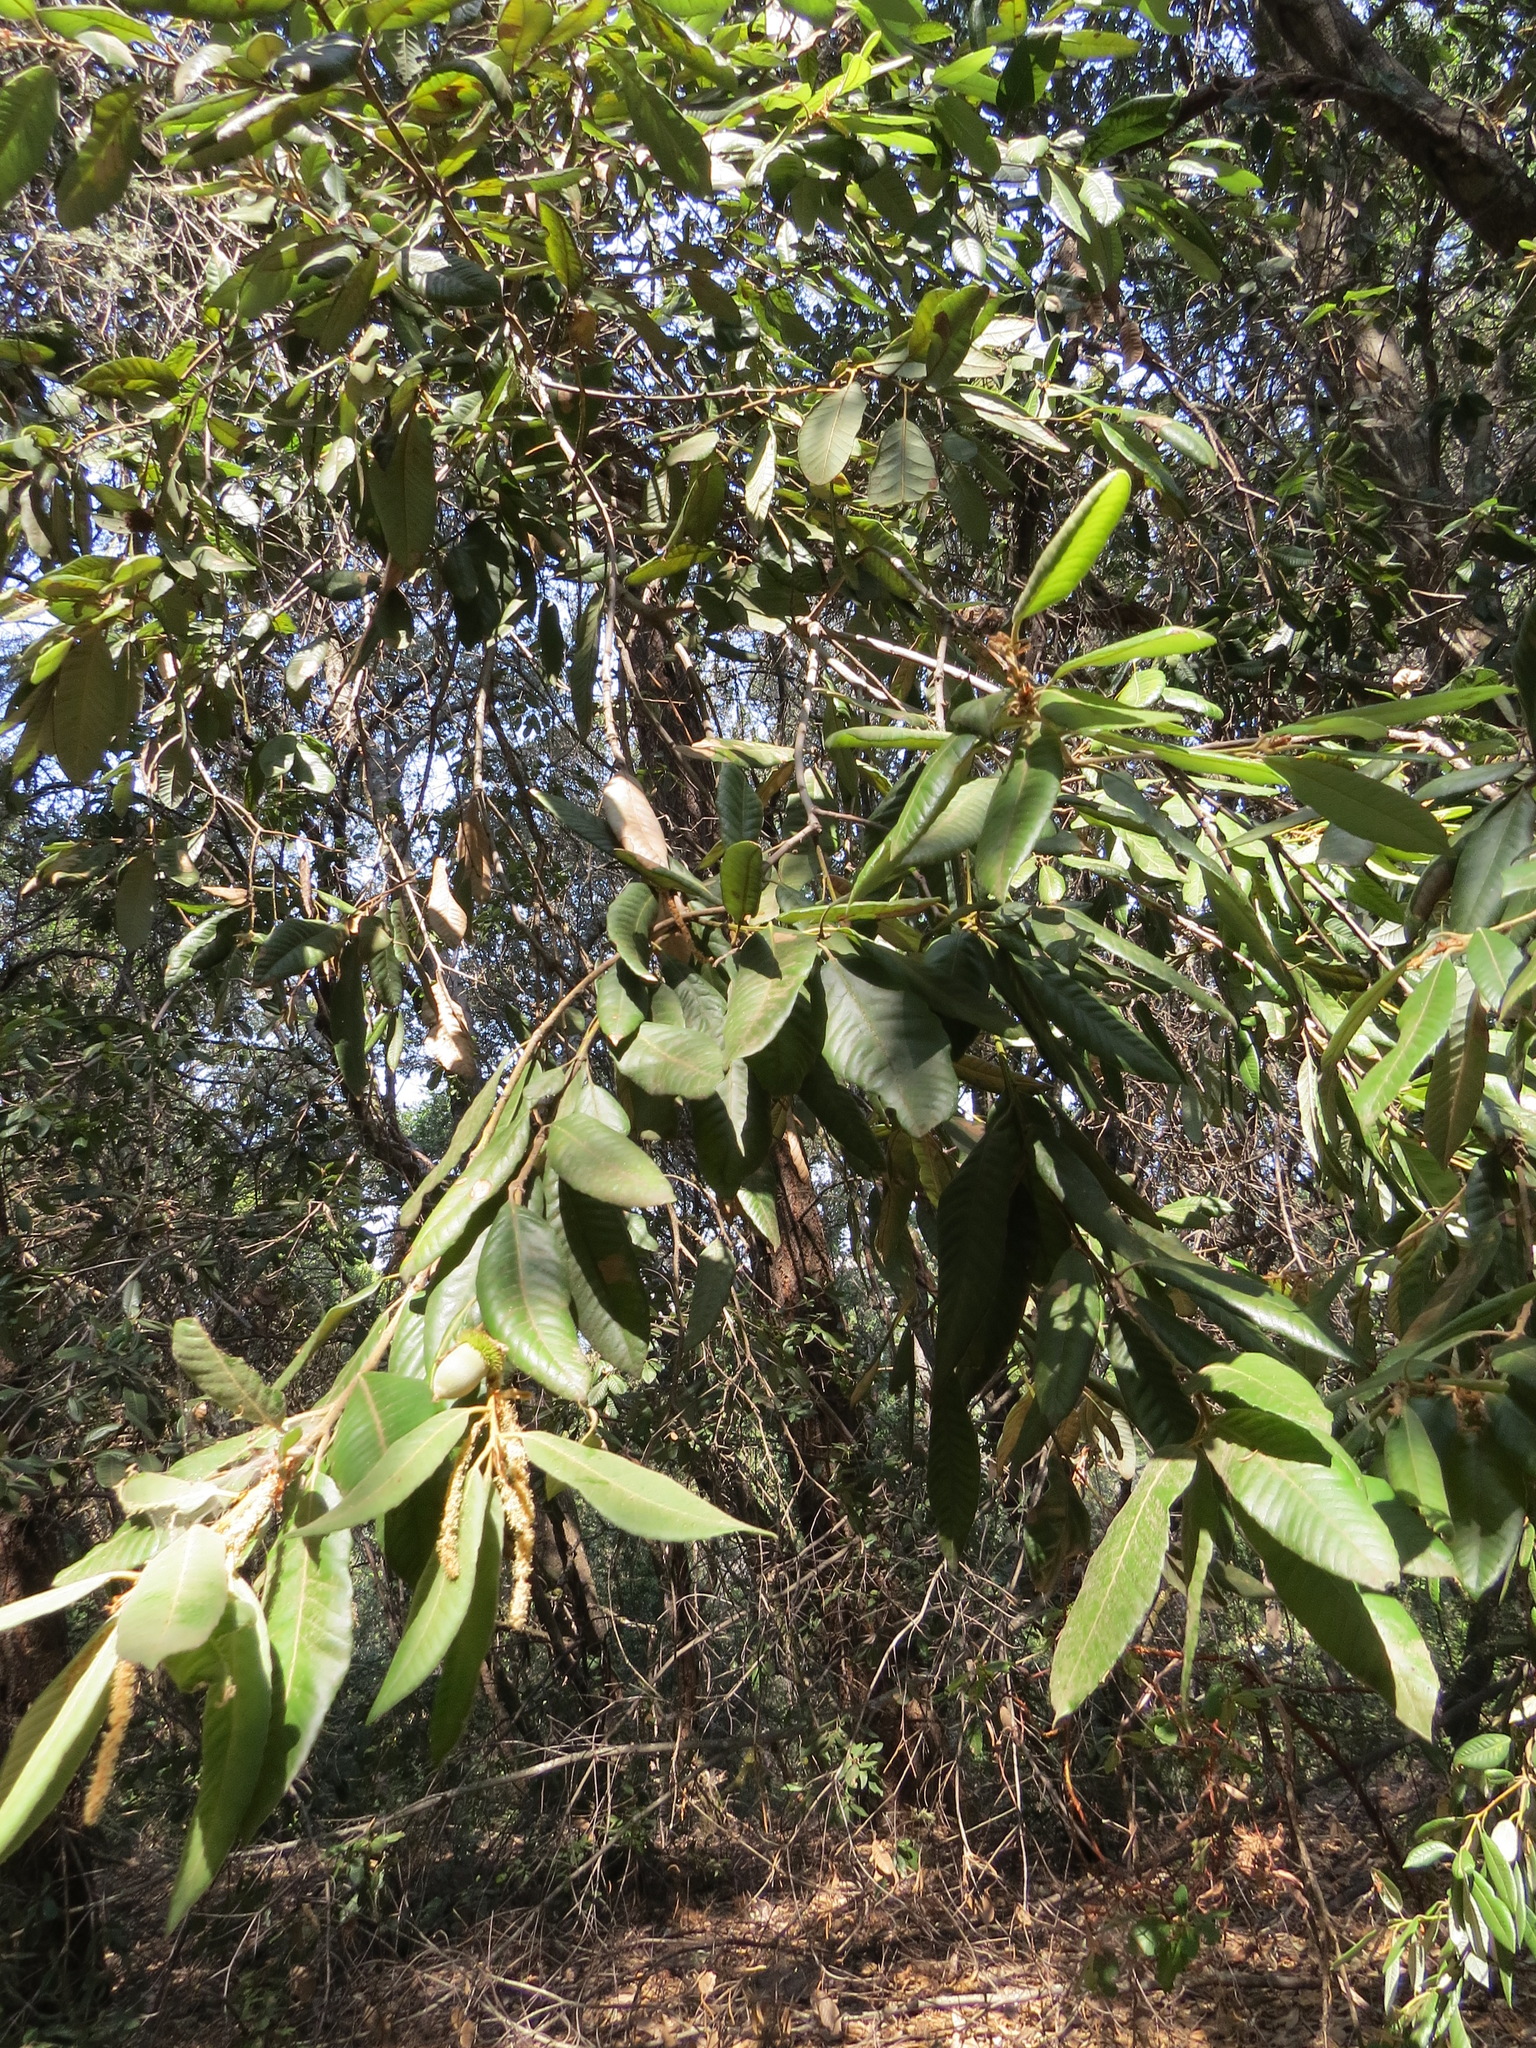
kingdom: Plantae
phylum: Tracheophyta
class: Magnoliopsida
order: Fagales
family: Fagaceae
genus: Notholithocarpus
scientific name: Notholithocarpus densiflorus
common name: Tan bark oak
